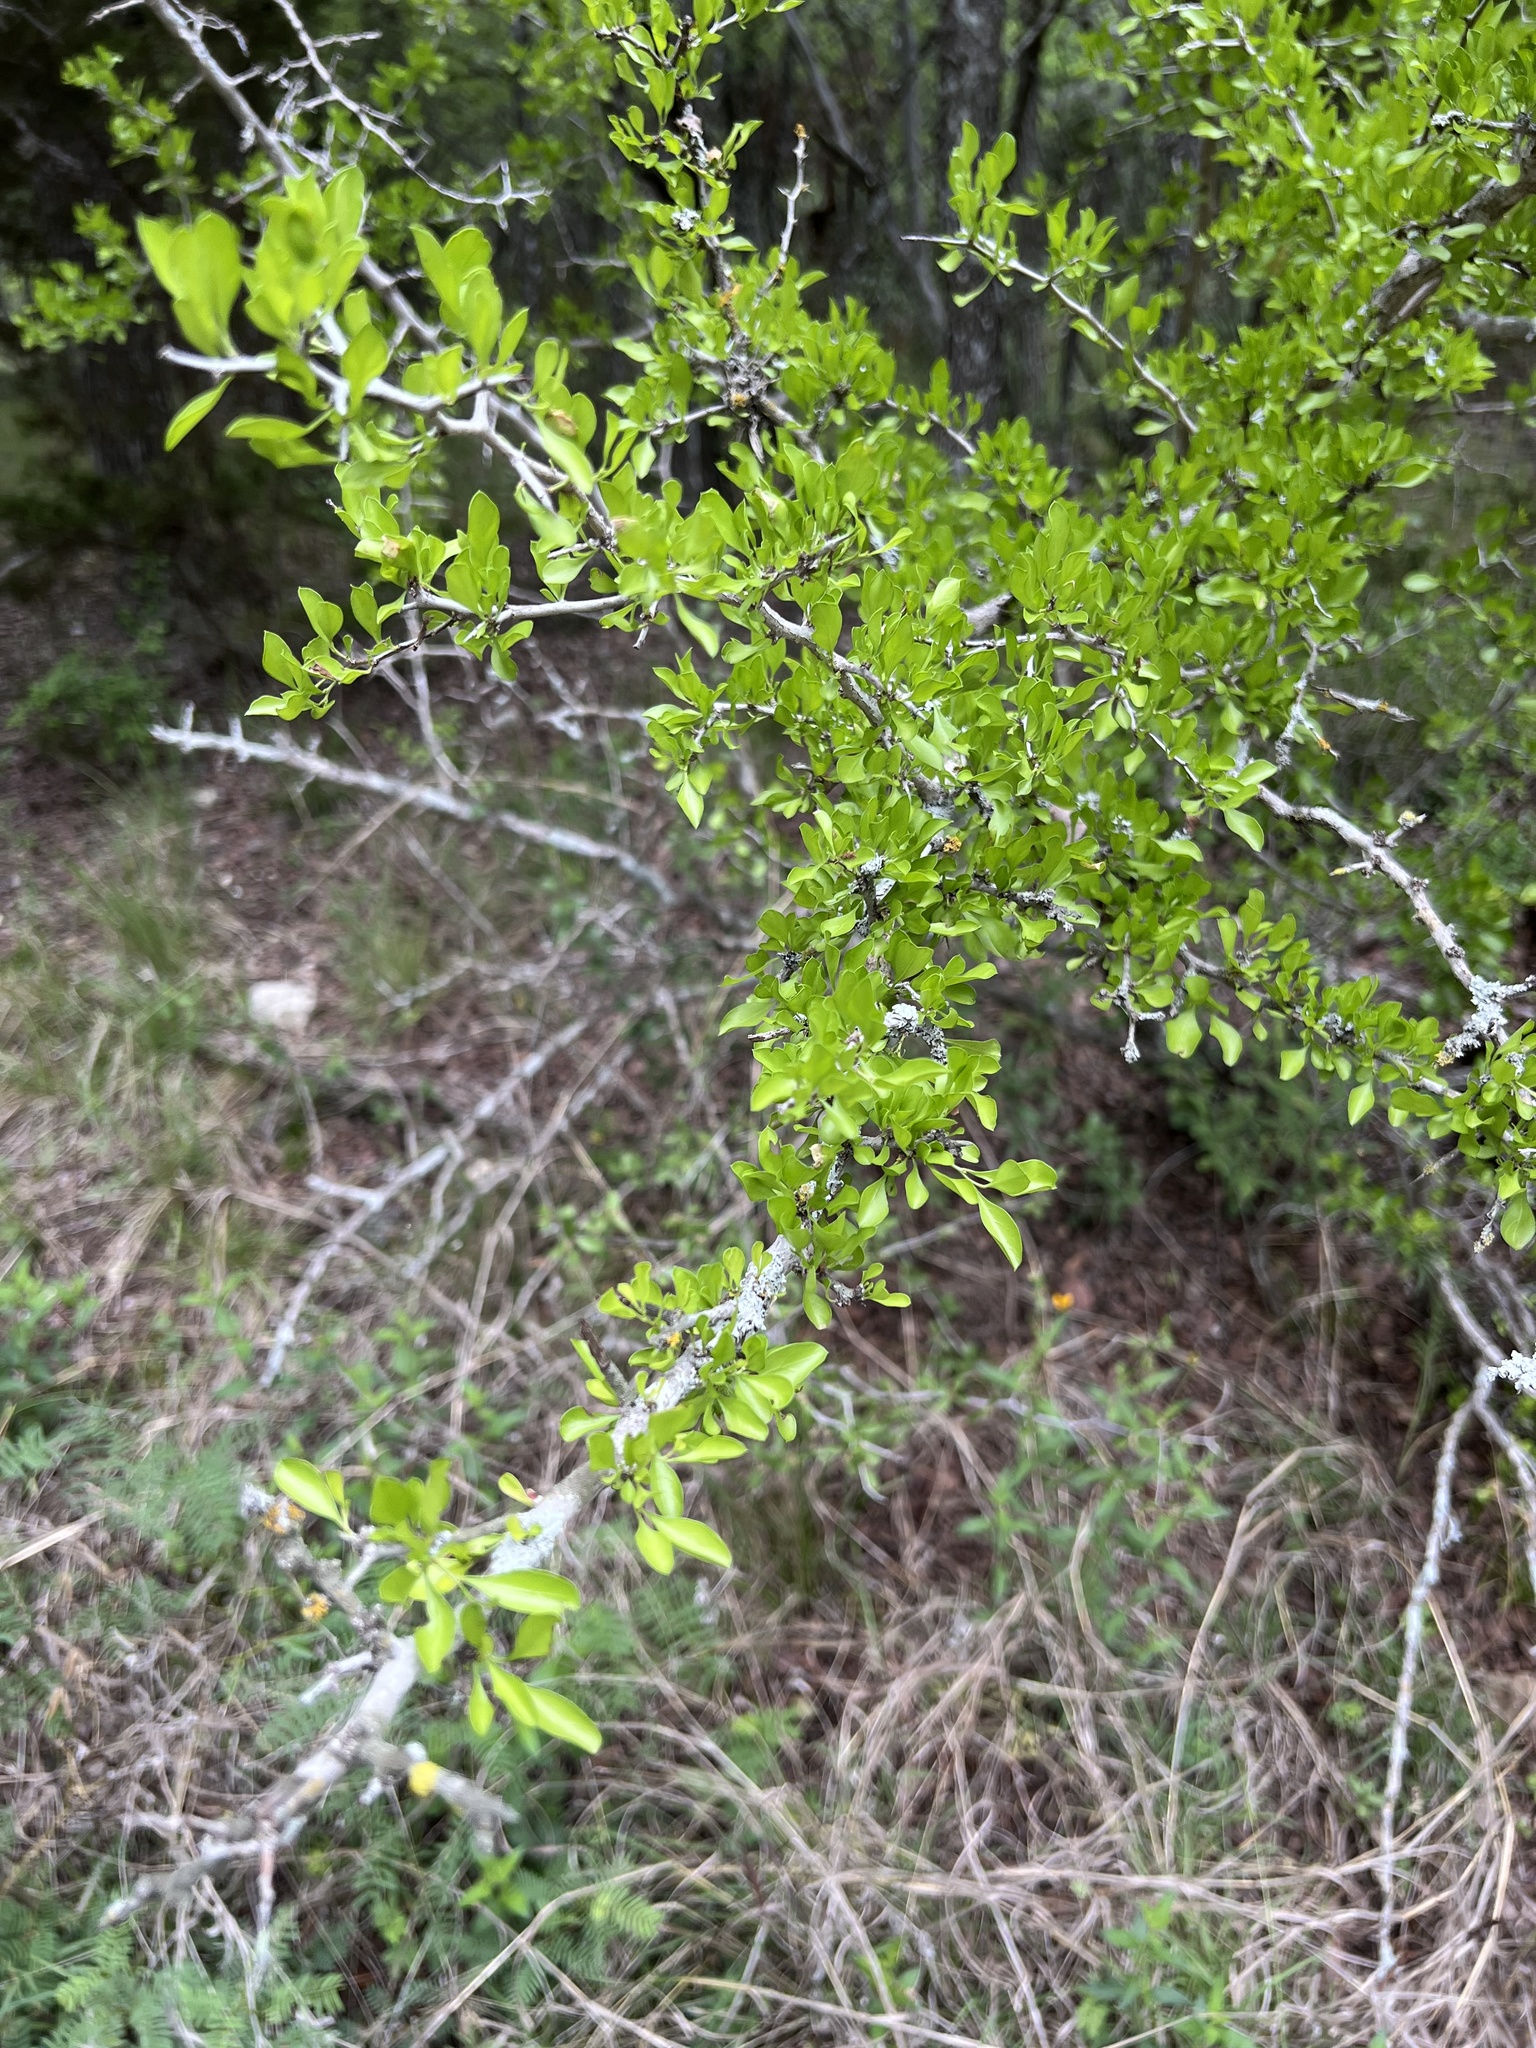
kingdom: Plantae
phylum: Tracheophyta
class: Magnoliopsida
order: Rosales
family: Rhamnaceae
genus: Condalia
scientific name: Condalia hookeri
